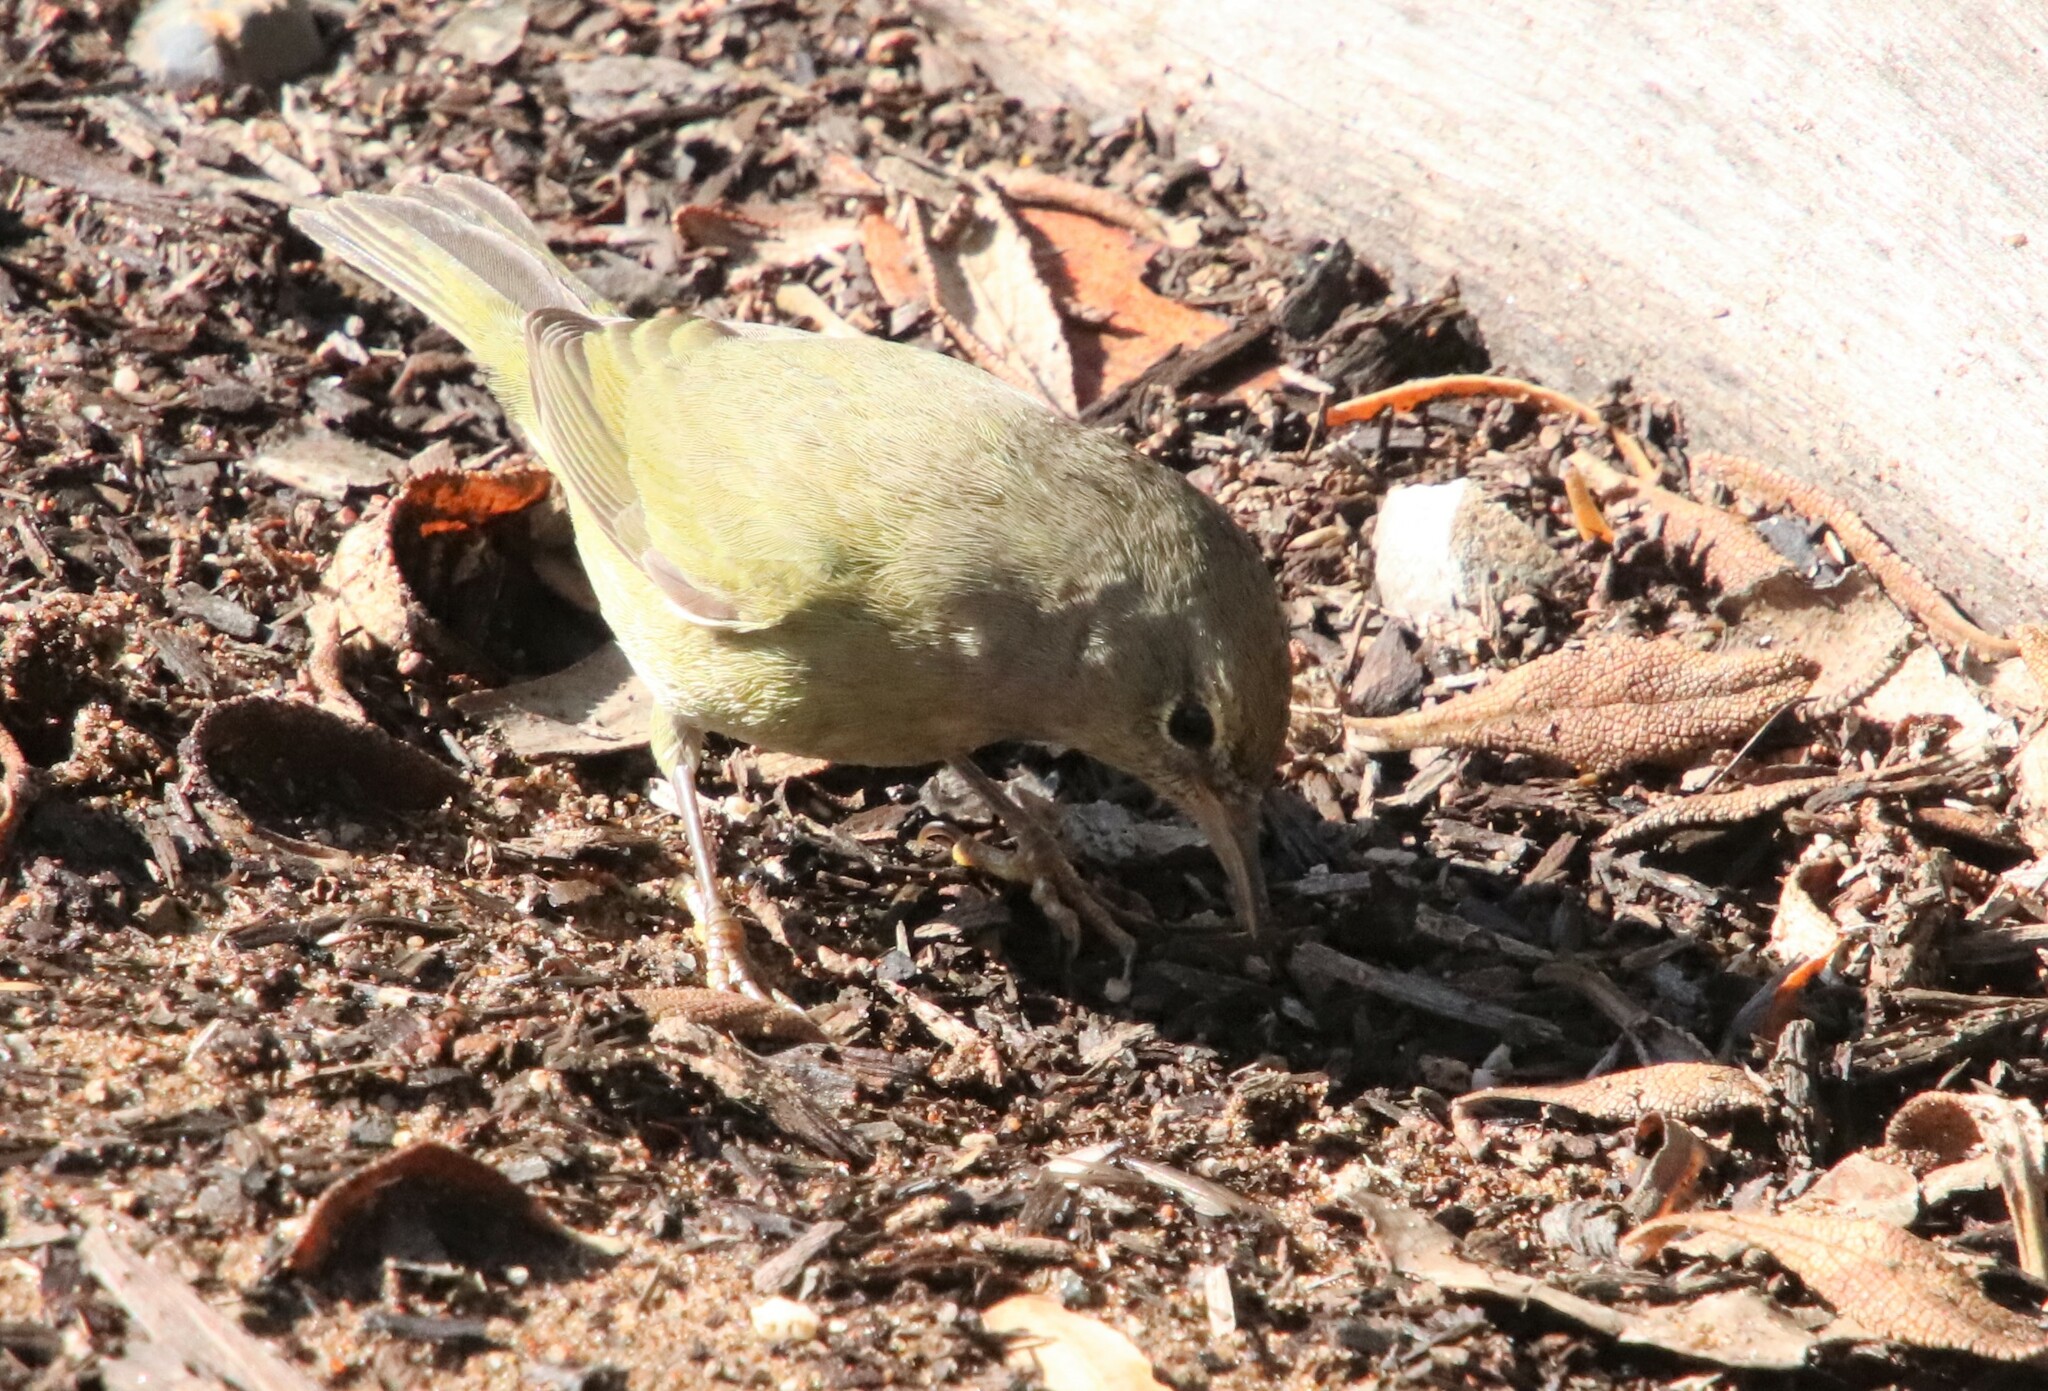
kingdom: Animalia
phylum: Chordata
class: Aves
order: Passeriformes
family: Parulidae
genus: Leiothlypis
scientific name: Leiothlypis celata
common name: Orange-crowned warbler
